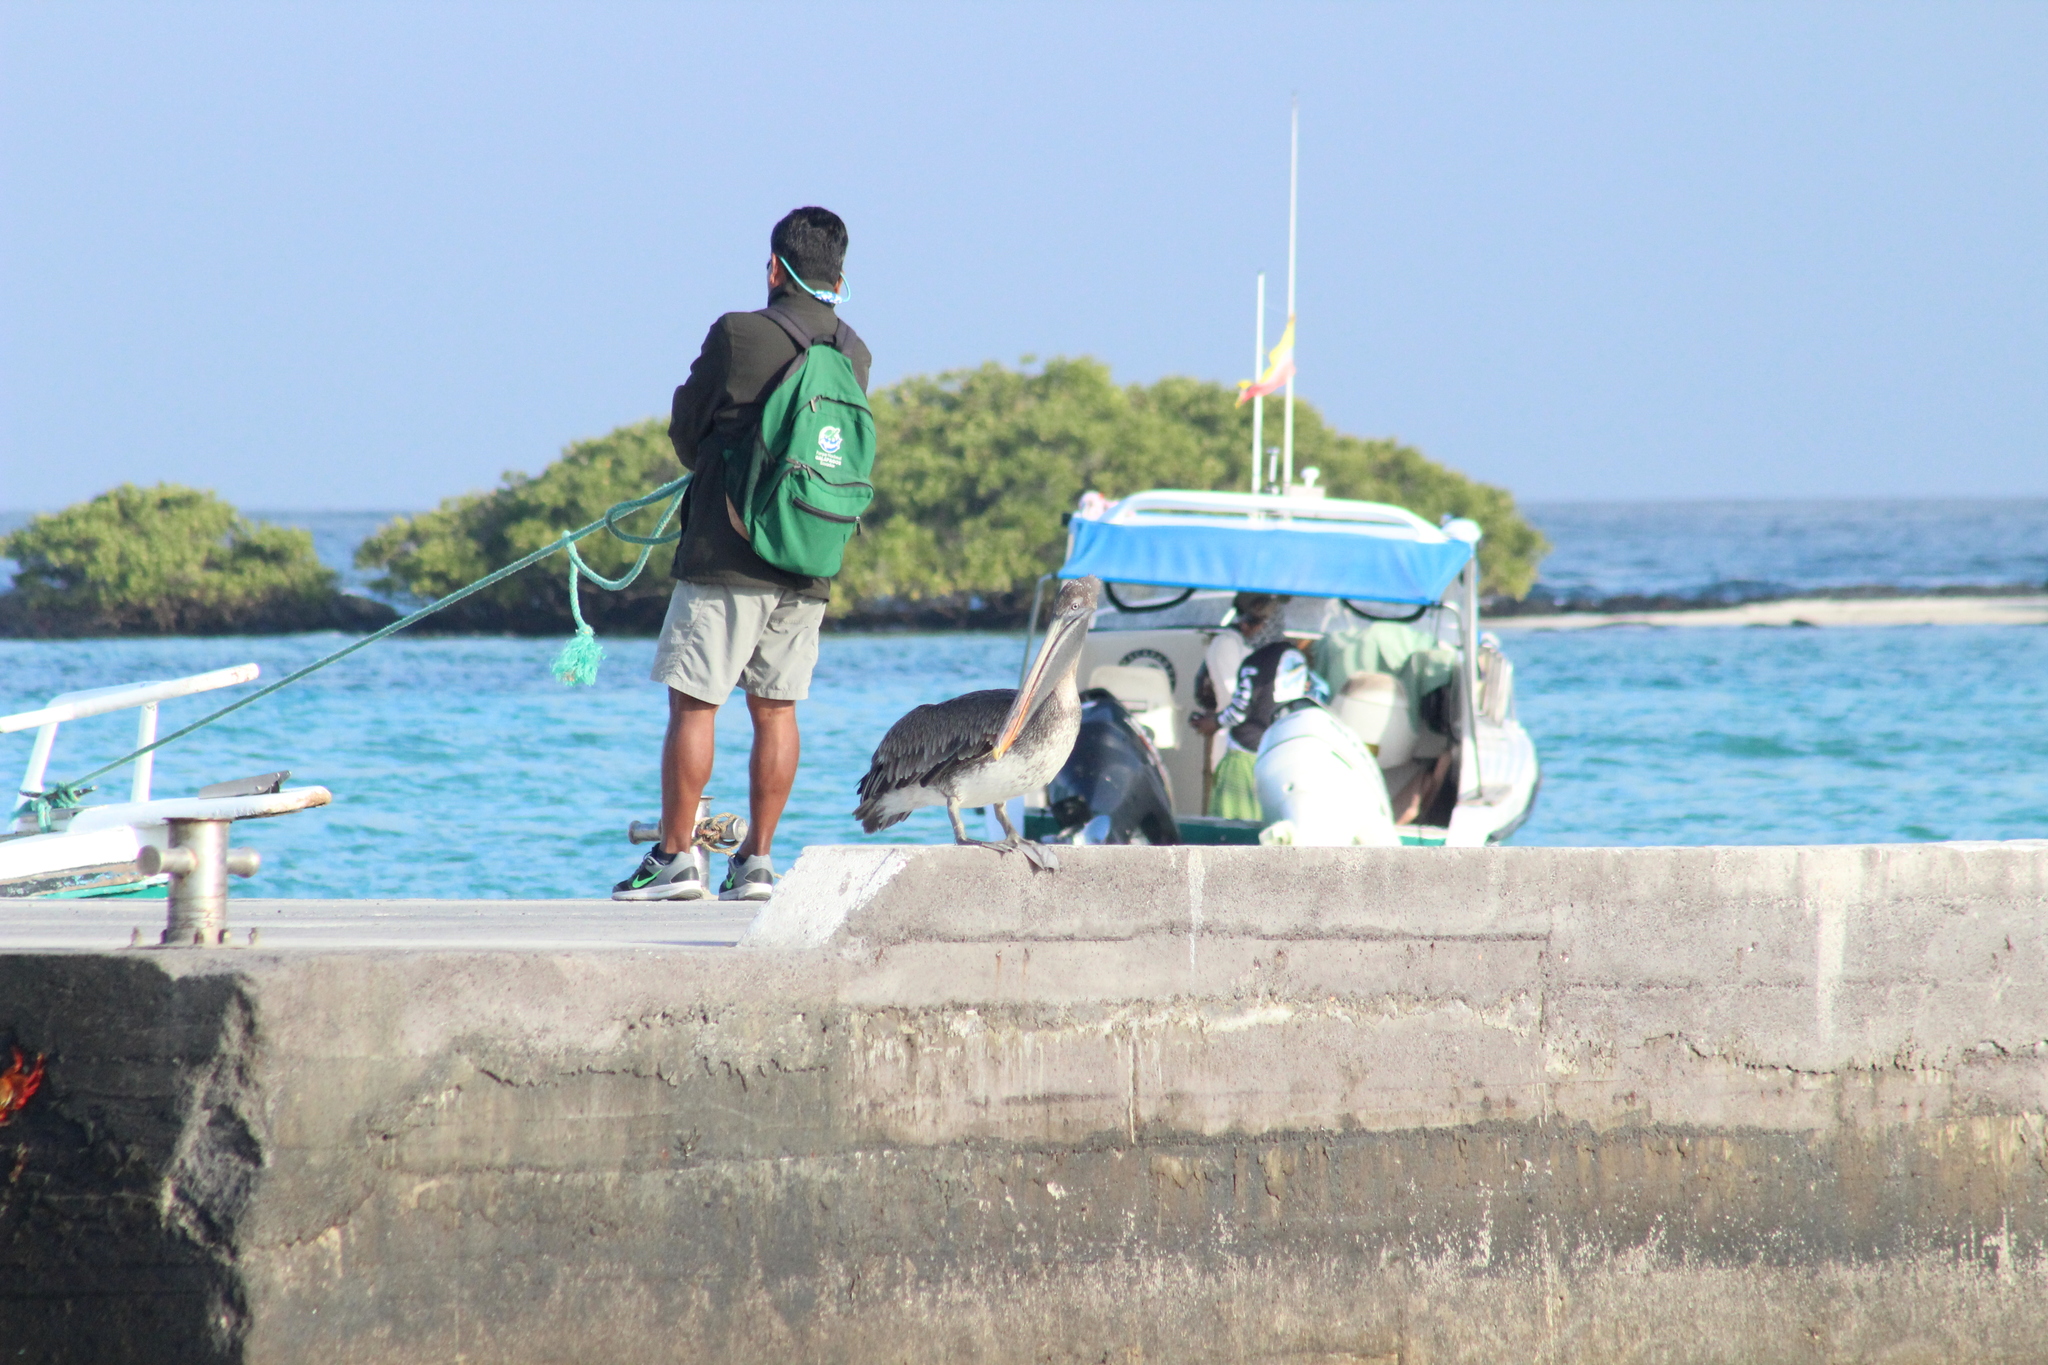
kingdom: Animalia
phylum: Chordata
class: Aves
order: Pelecaniformes
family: Pelecanidae
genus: Pelecanus
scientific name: Pelecanus occidentalis
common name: Brown pelican
